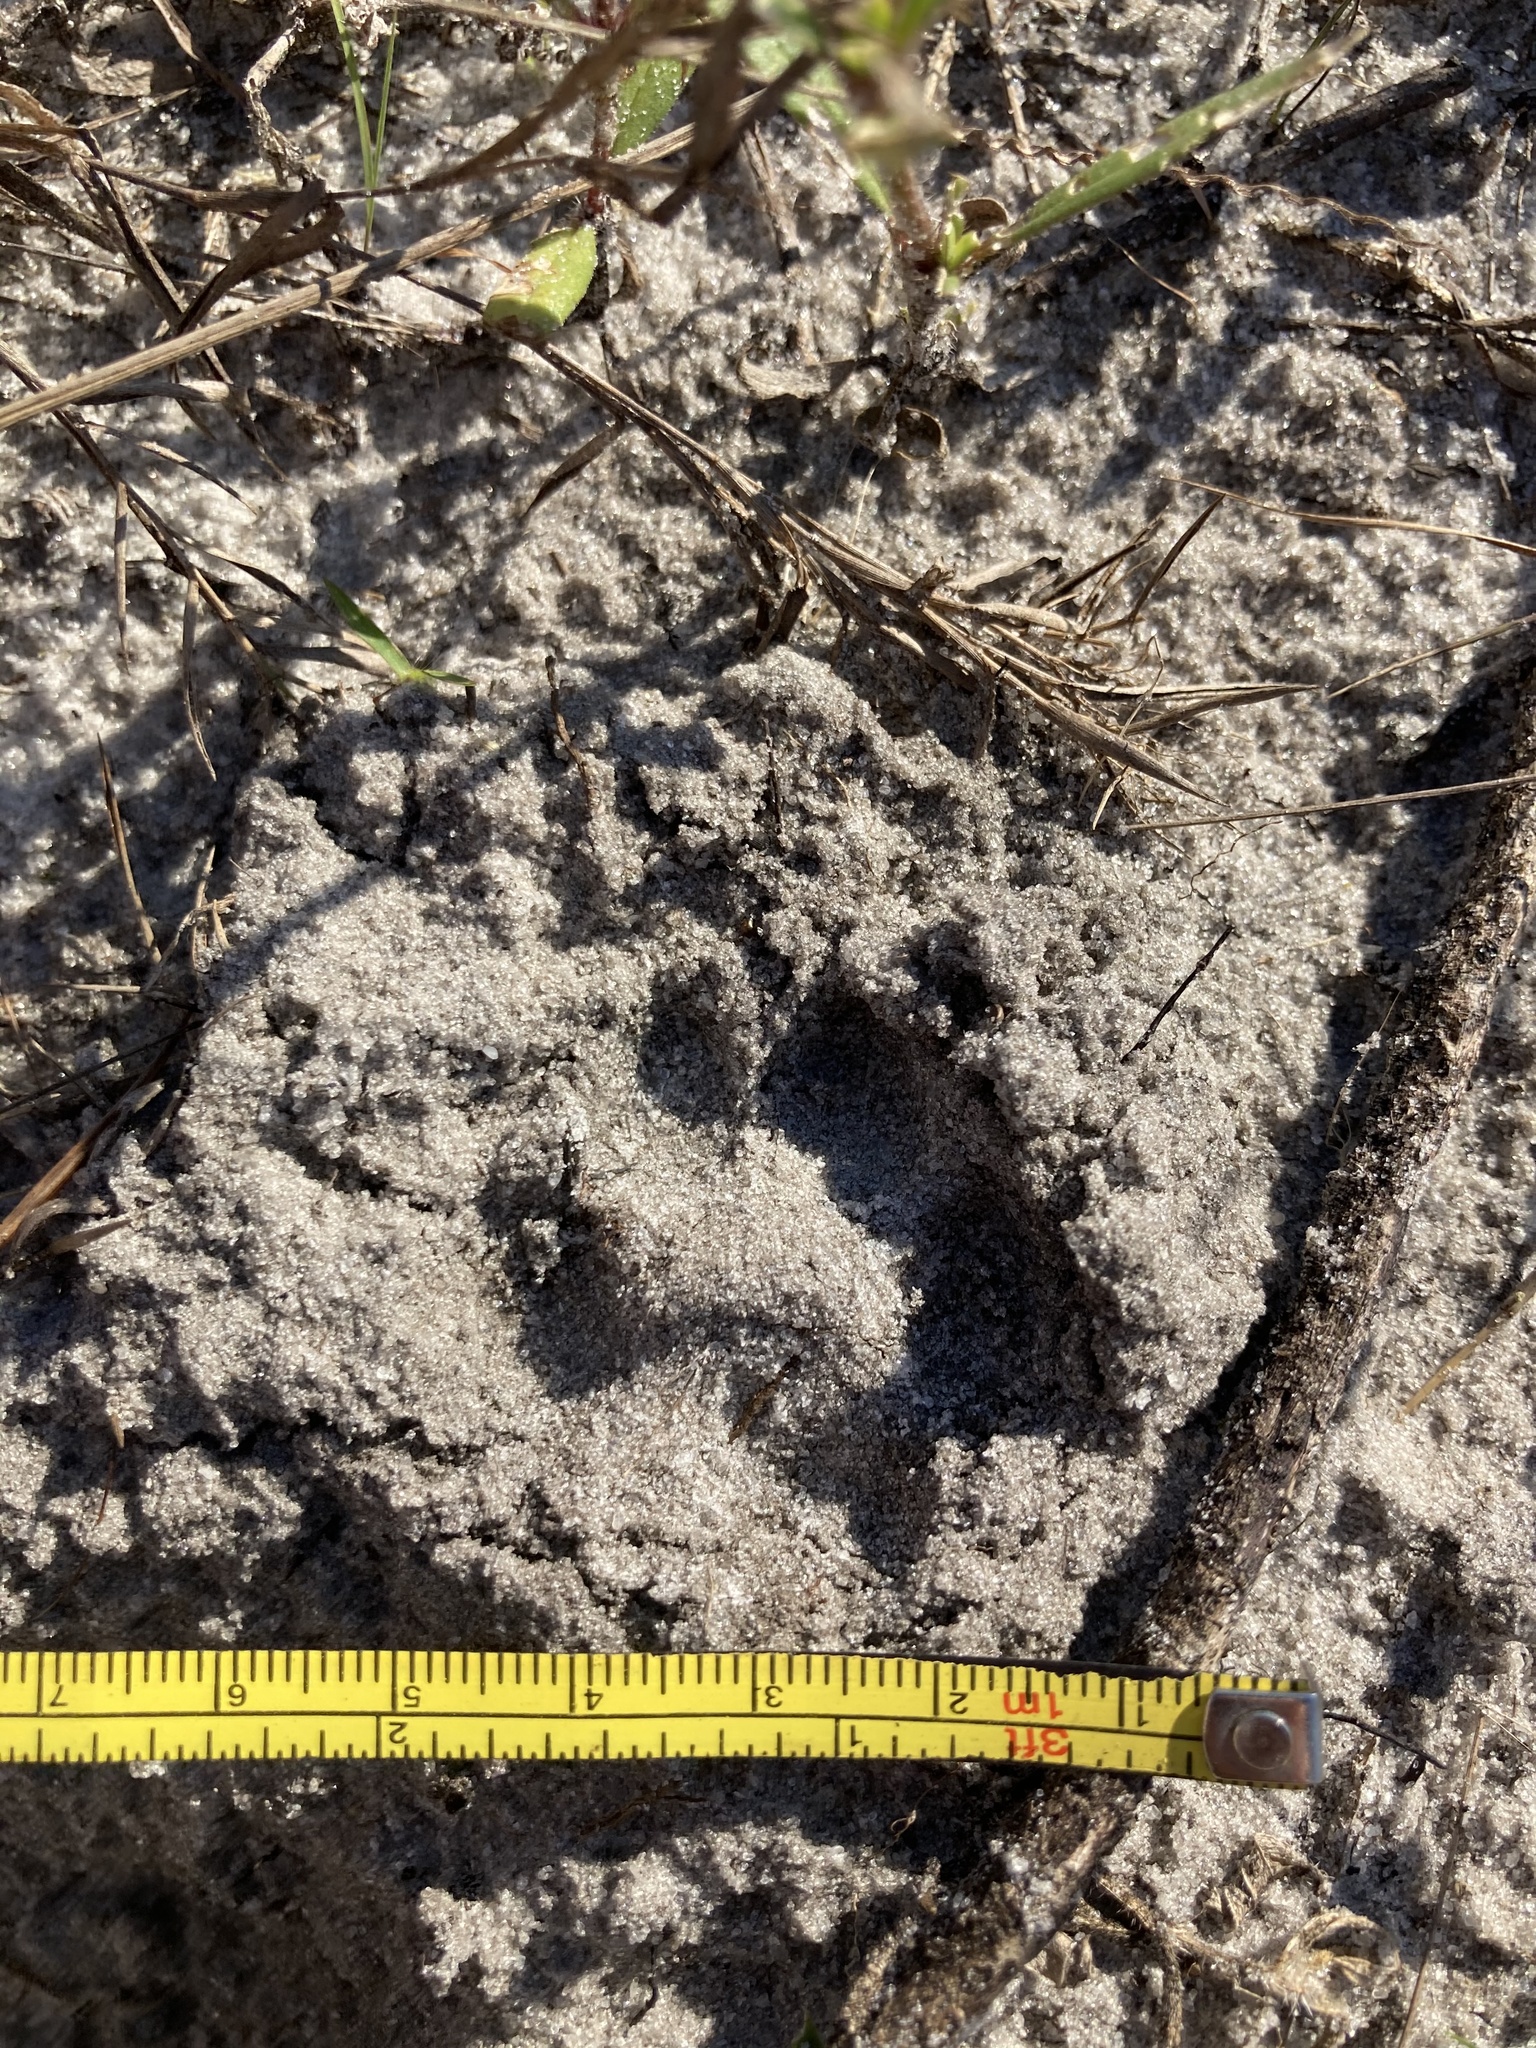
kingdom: Animalia
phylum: Chordata
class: Mammalia
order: Carnivora
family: Canidae
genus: Urocyon
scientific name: Urocyon cinereoargenteus
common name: Gray fox
